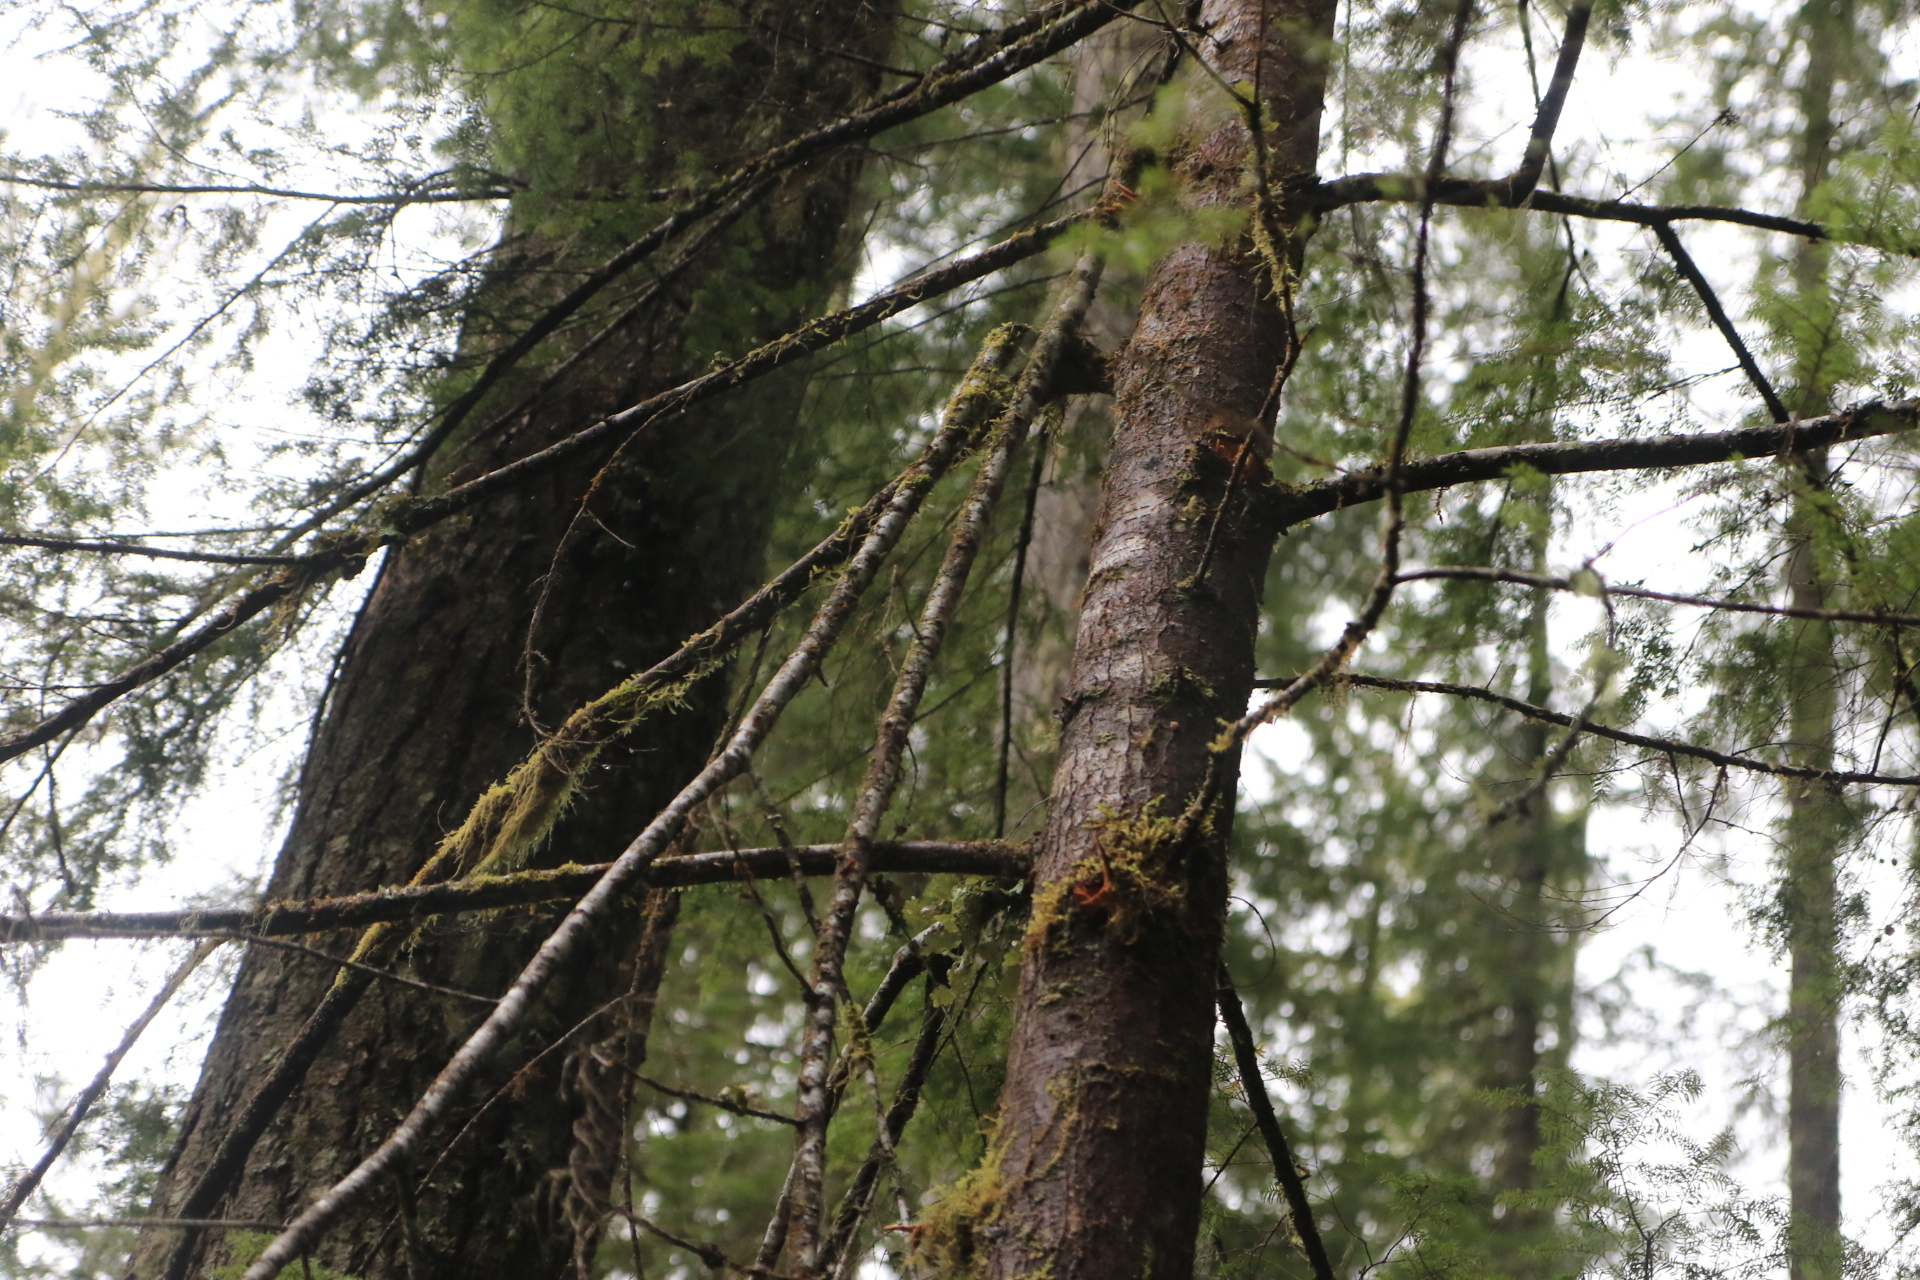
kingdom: Plantae
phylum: Tracheophyta
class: Pinopsida
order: Pinales
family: Pinaceae
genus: Tsuga
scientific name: Tsuga heterophylla
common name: Western hemlock
